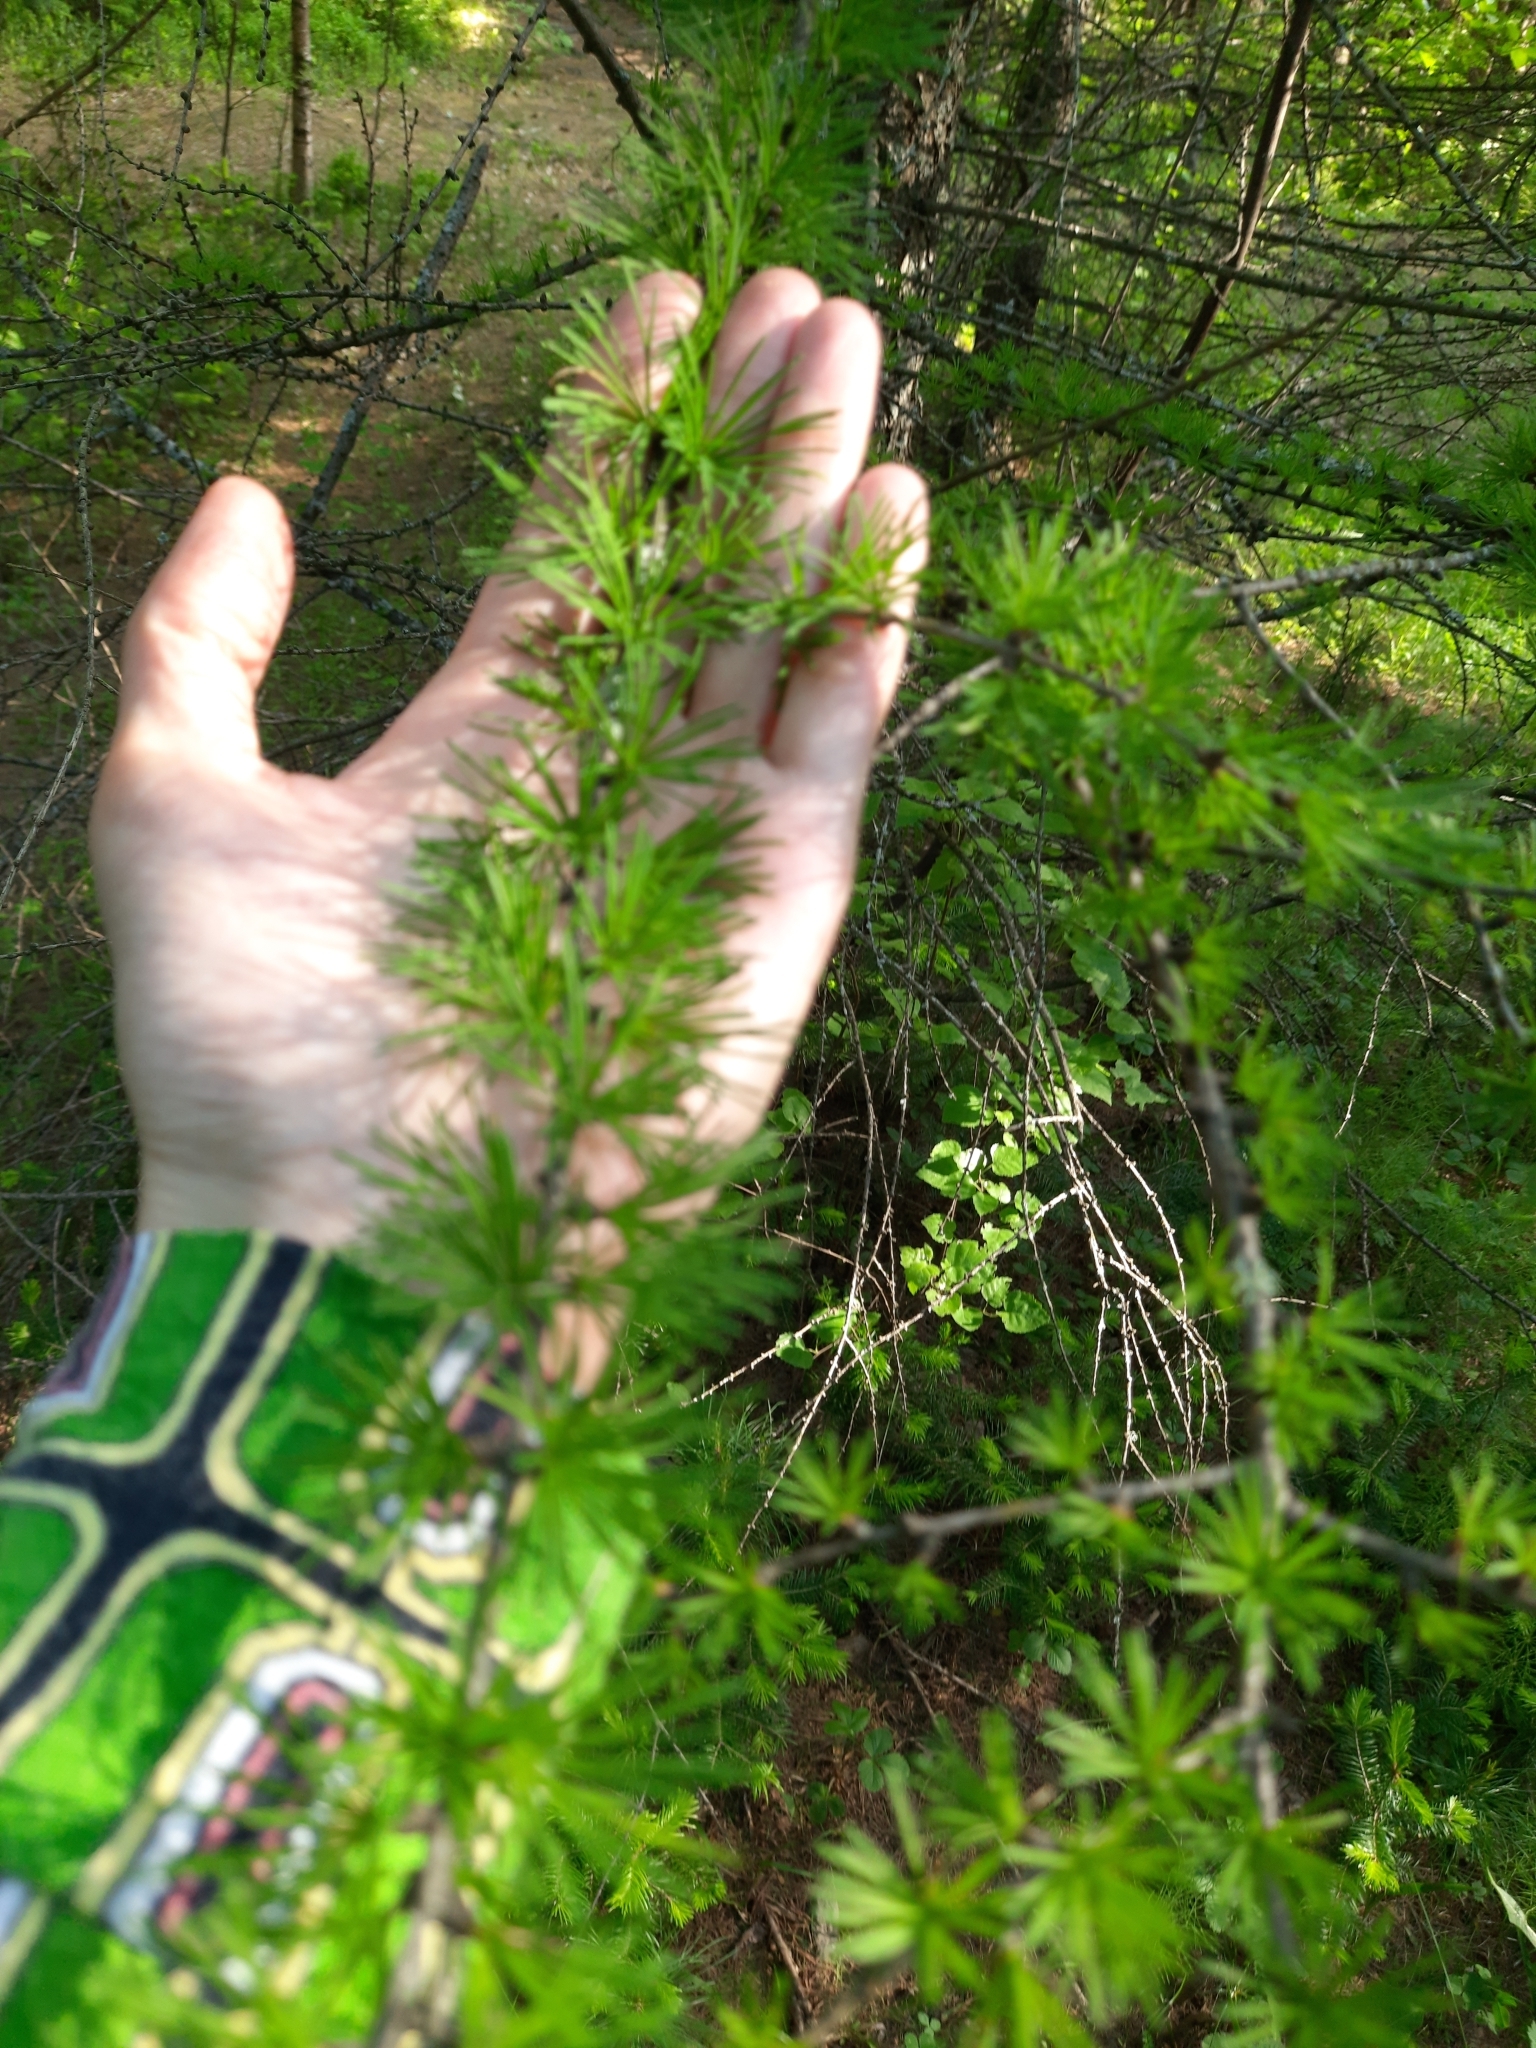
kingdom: Plantae
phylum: Tracheophyta
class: Pinopsida
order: Pinales
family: Pinaceae
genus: Larix
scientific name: Larix sibirica
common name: Siberian larch
